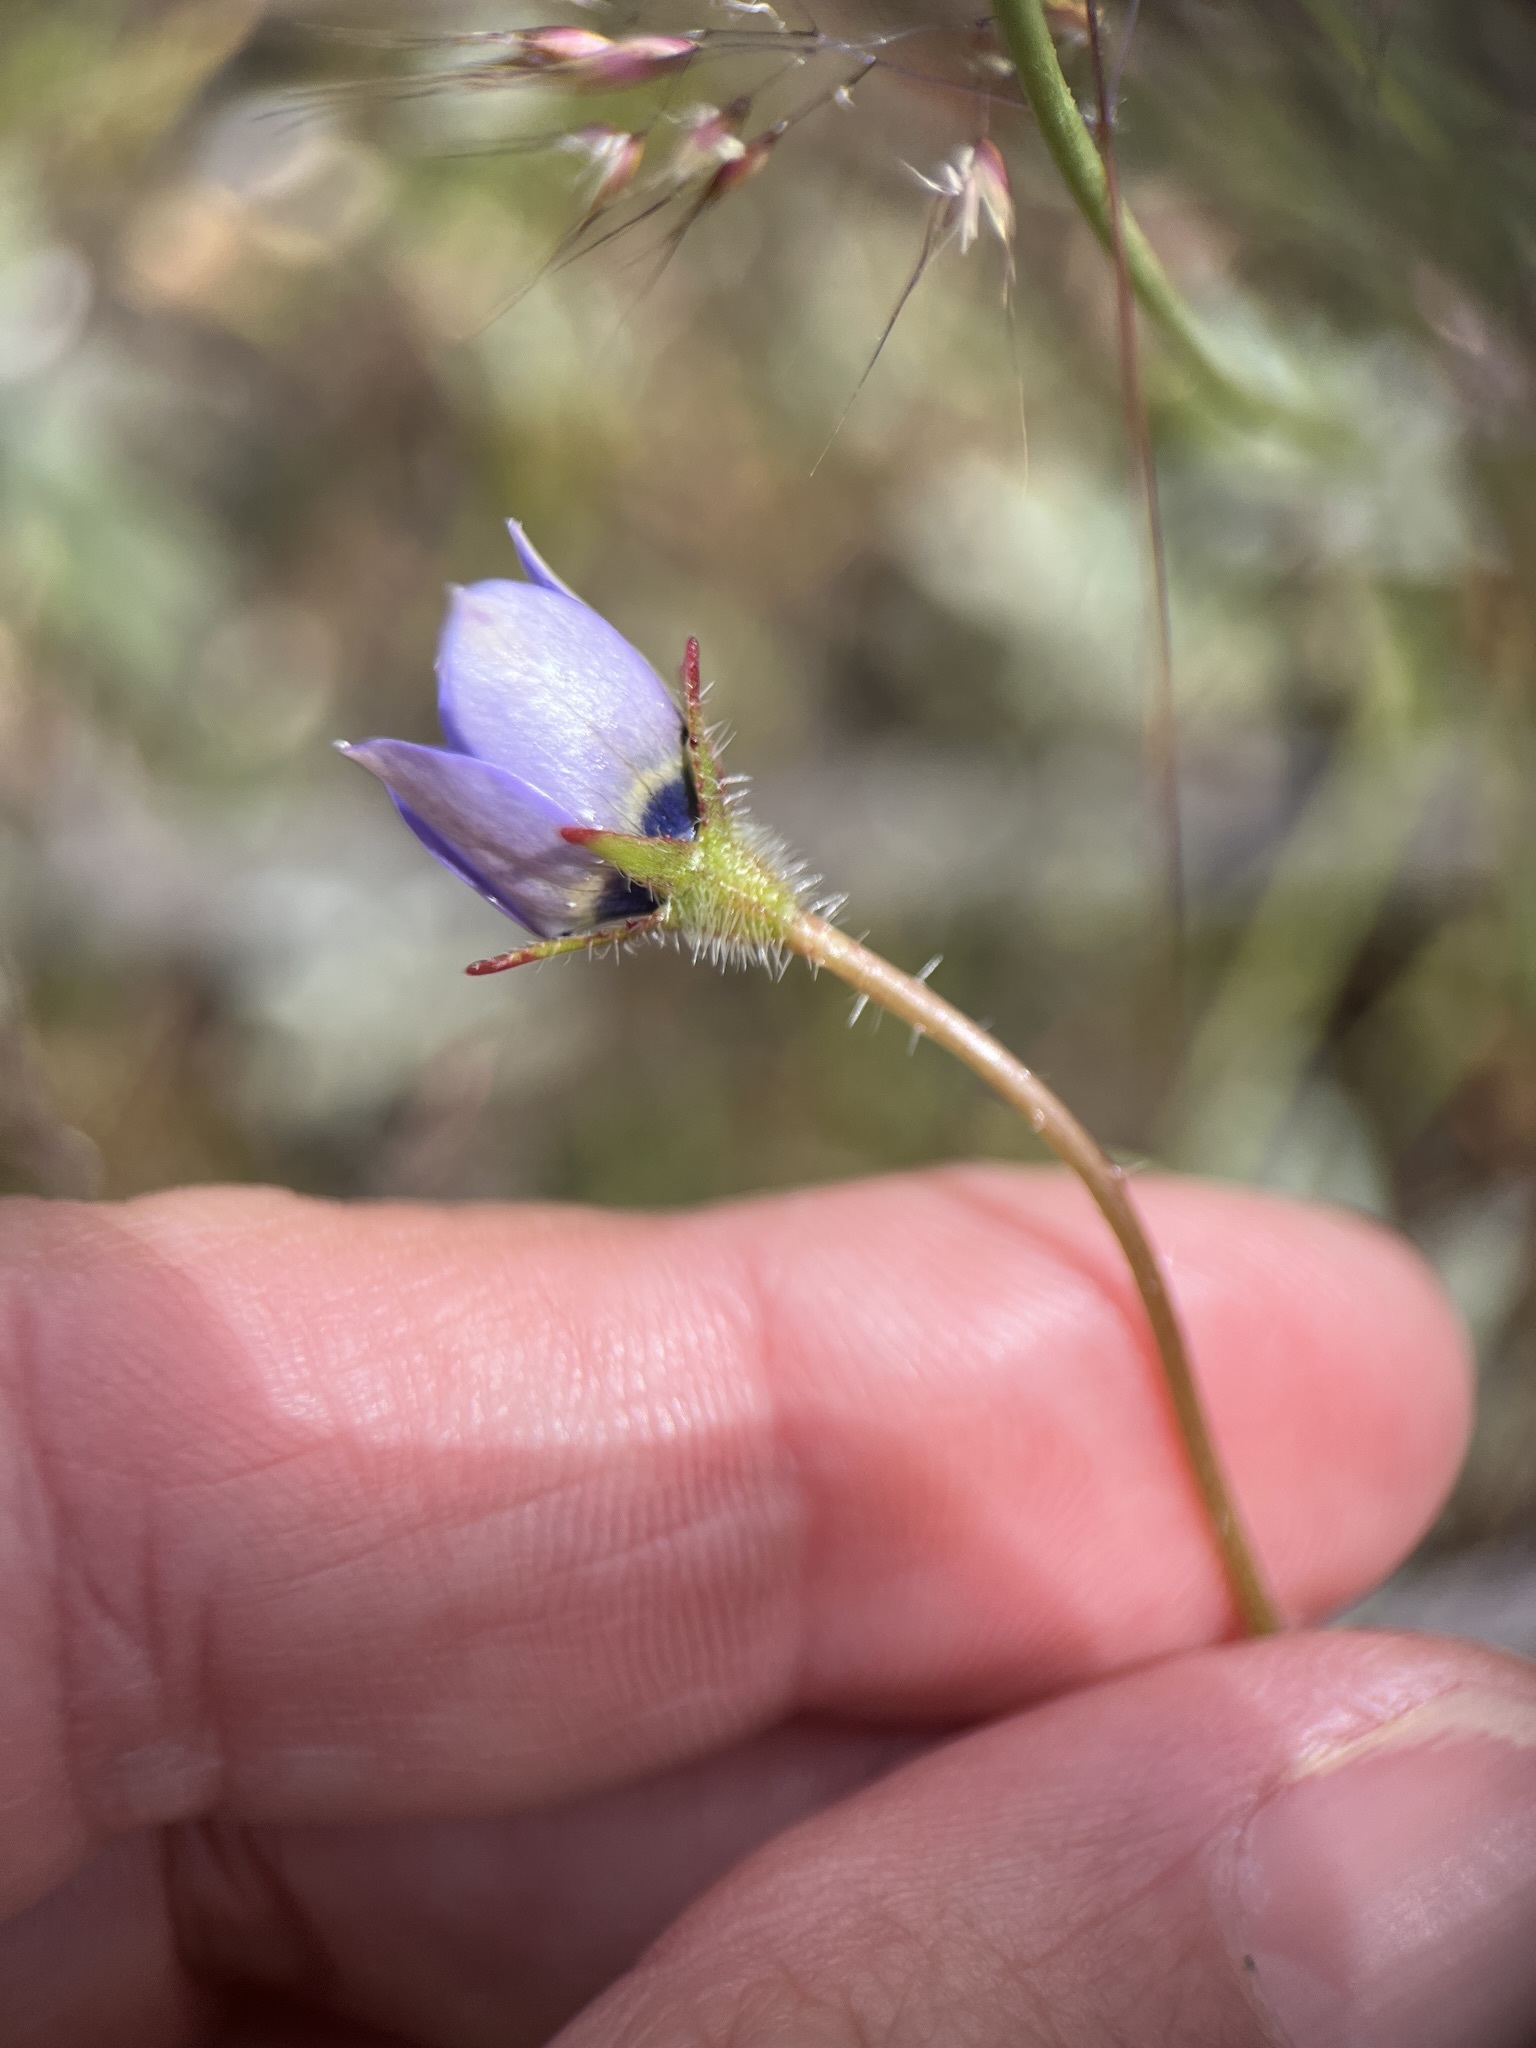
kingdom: Plantae
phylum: Tracheophyta
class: Magnoliopsida
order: Asterales
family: Campanulaceae
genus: Wahlenbergia
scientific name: Wahlenbergia capensis
